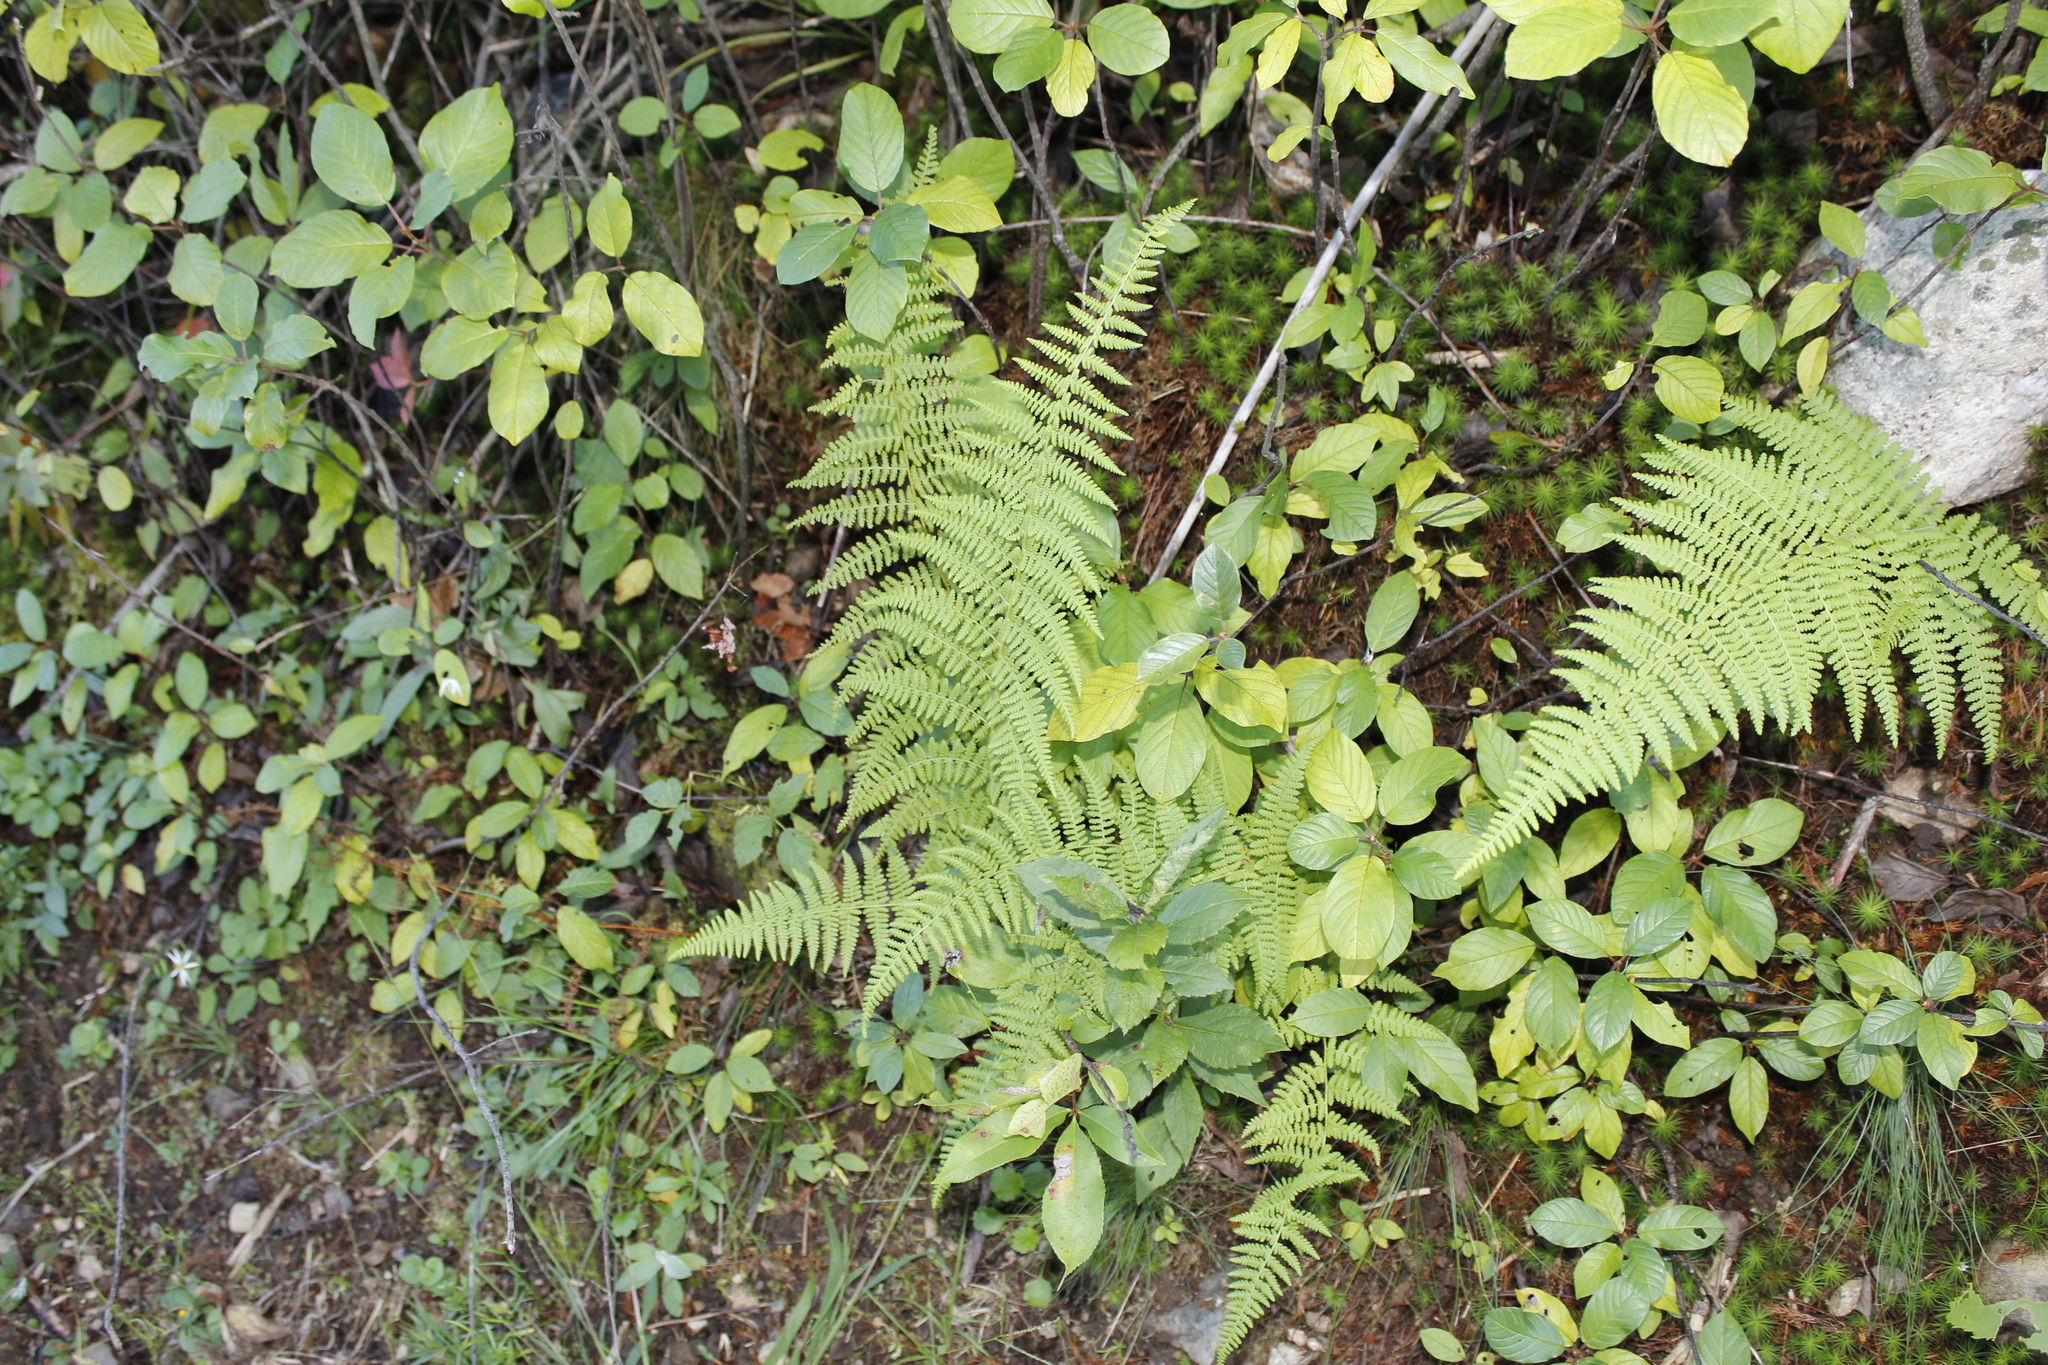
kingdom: Plantae
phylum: Tracheophyta
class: Polypodiopsida
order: Polypodiales
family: Dennstaedtiaceae
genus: Sitobolium
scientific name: Sitobolium punctilobum
